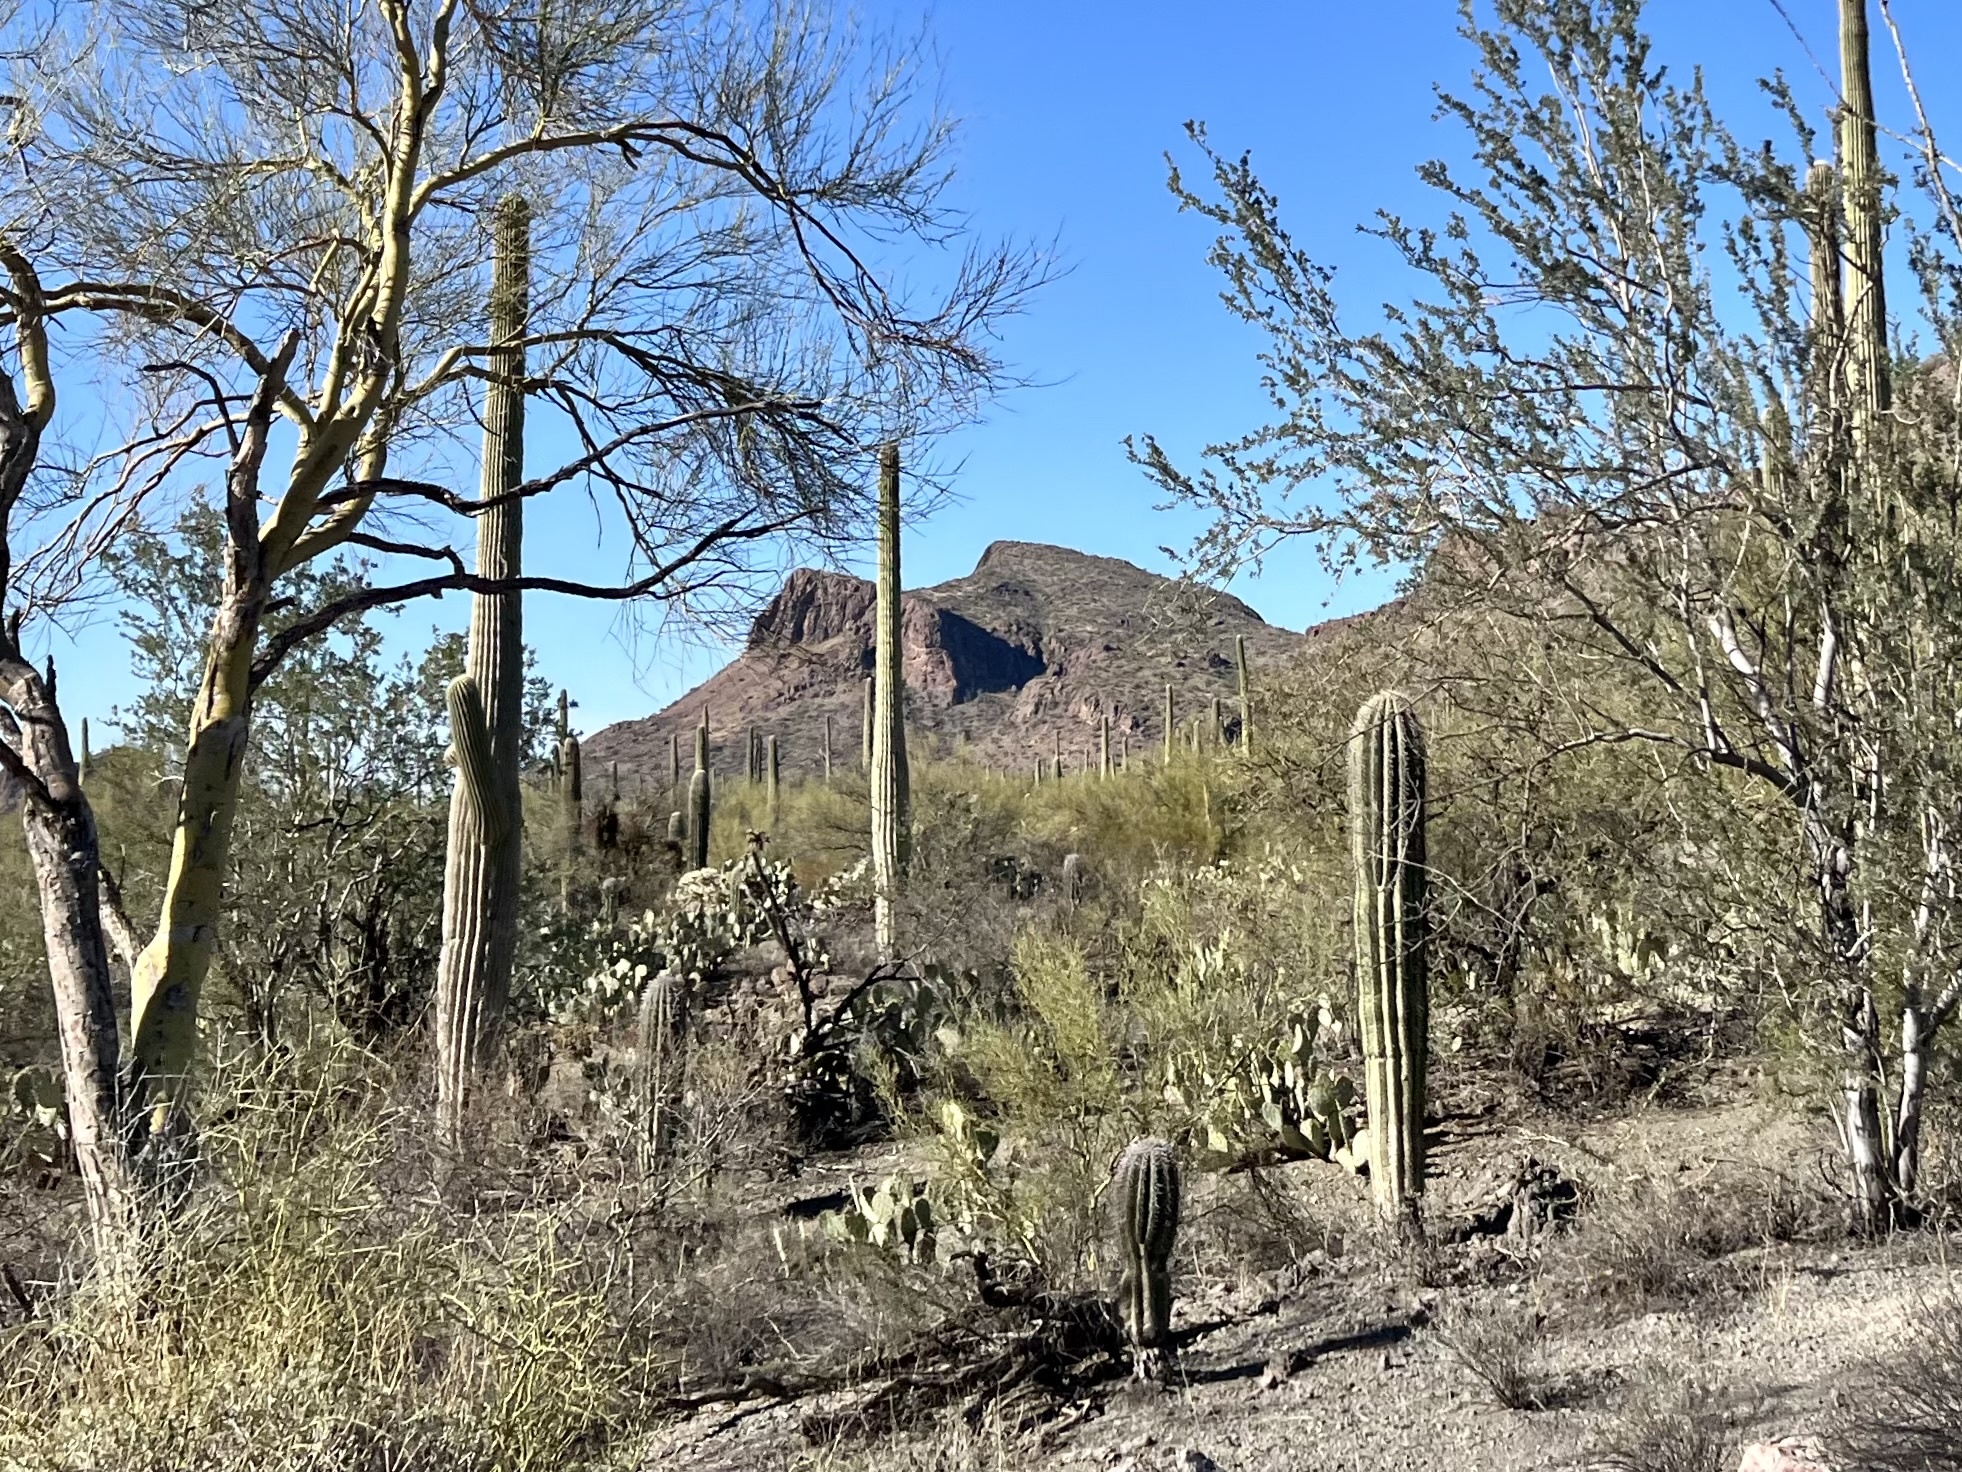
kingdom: Plantae
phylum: Tracheophyta
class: Magnoliopsida
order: Caryophyllales
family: Cactaceae
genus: Carnegiea
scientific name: Carnegiea gigantea
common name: Saguaro
